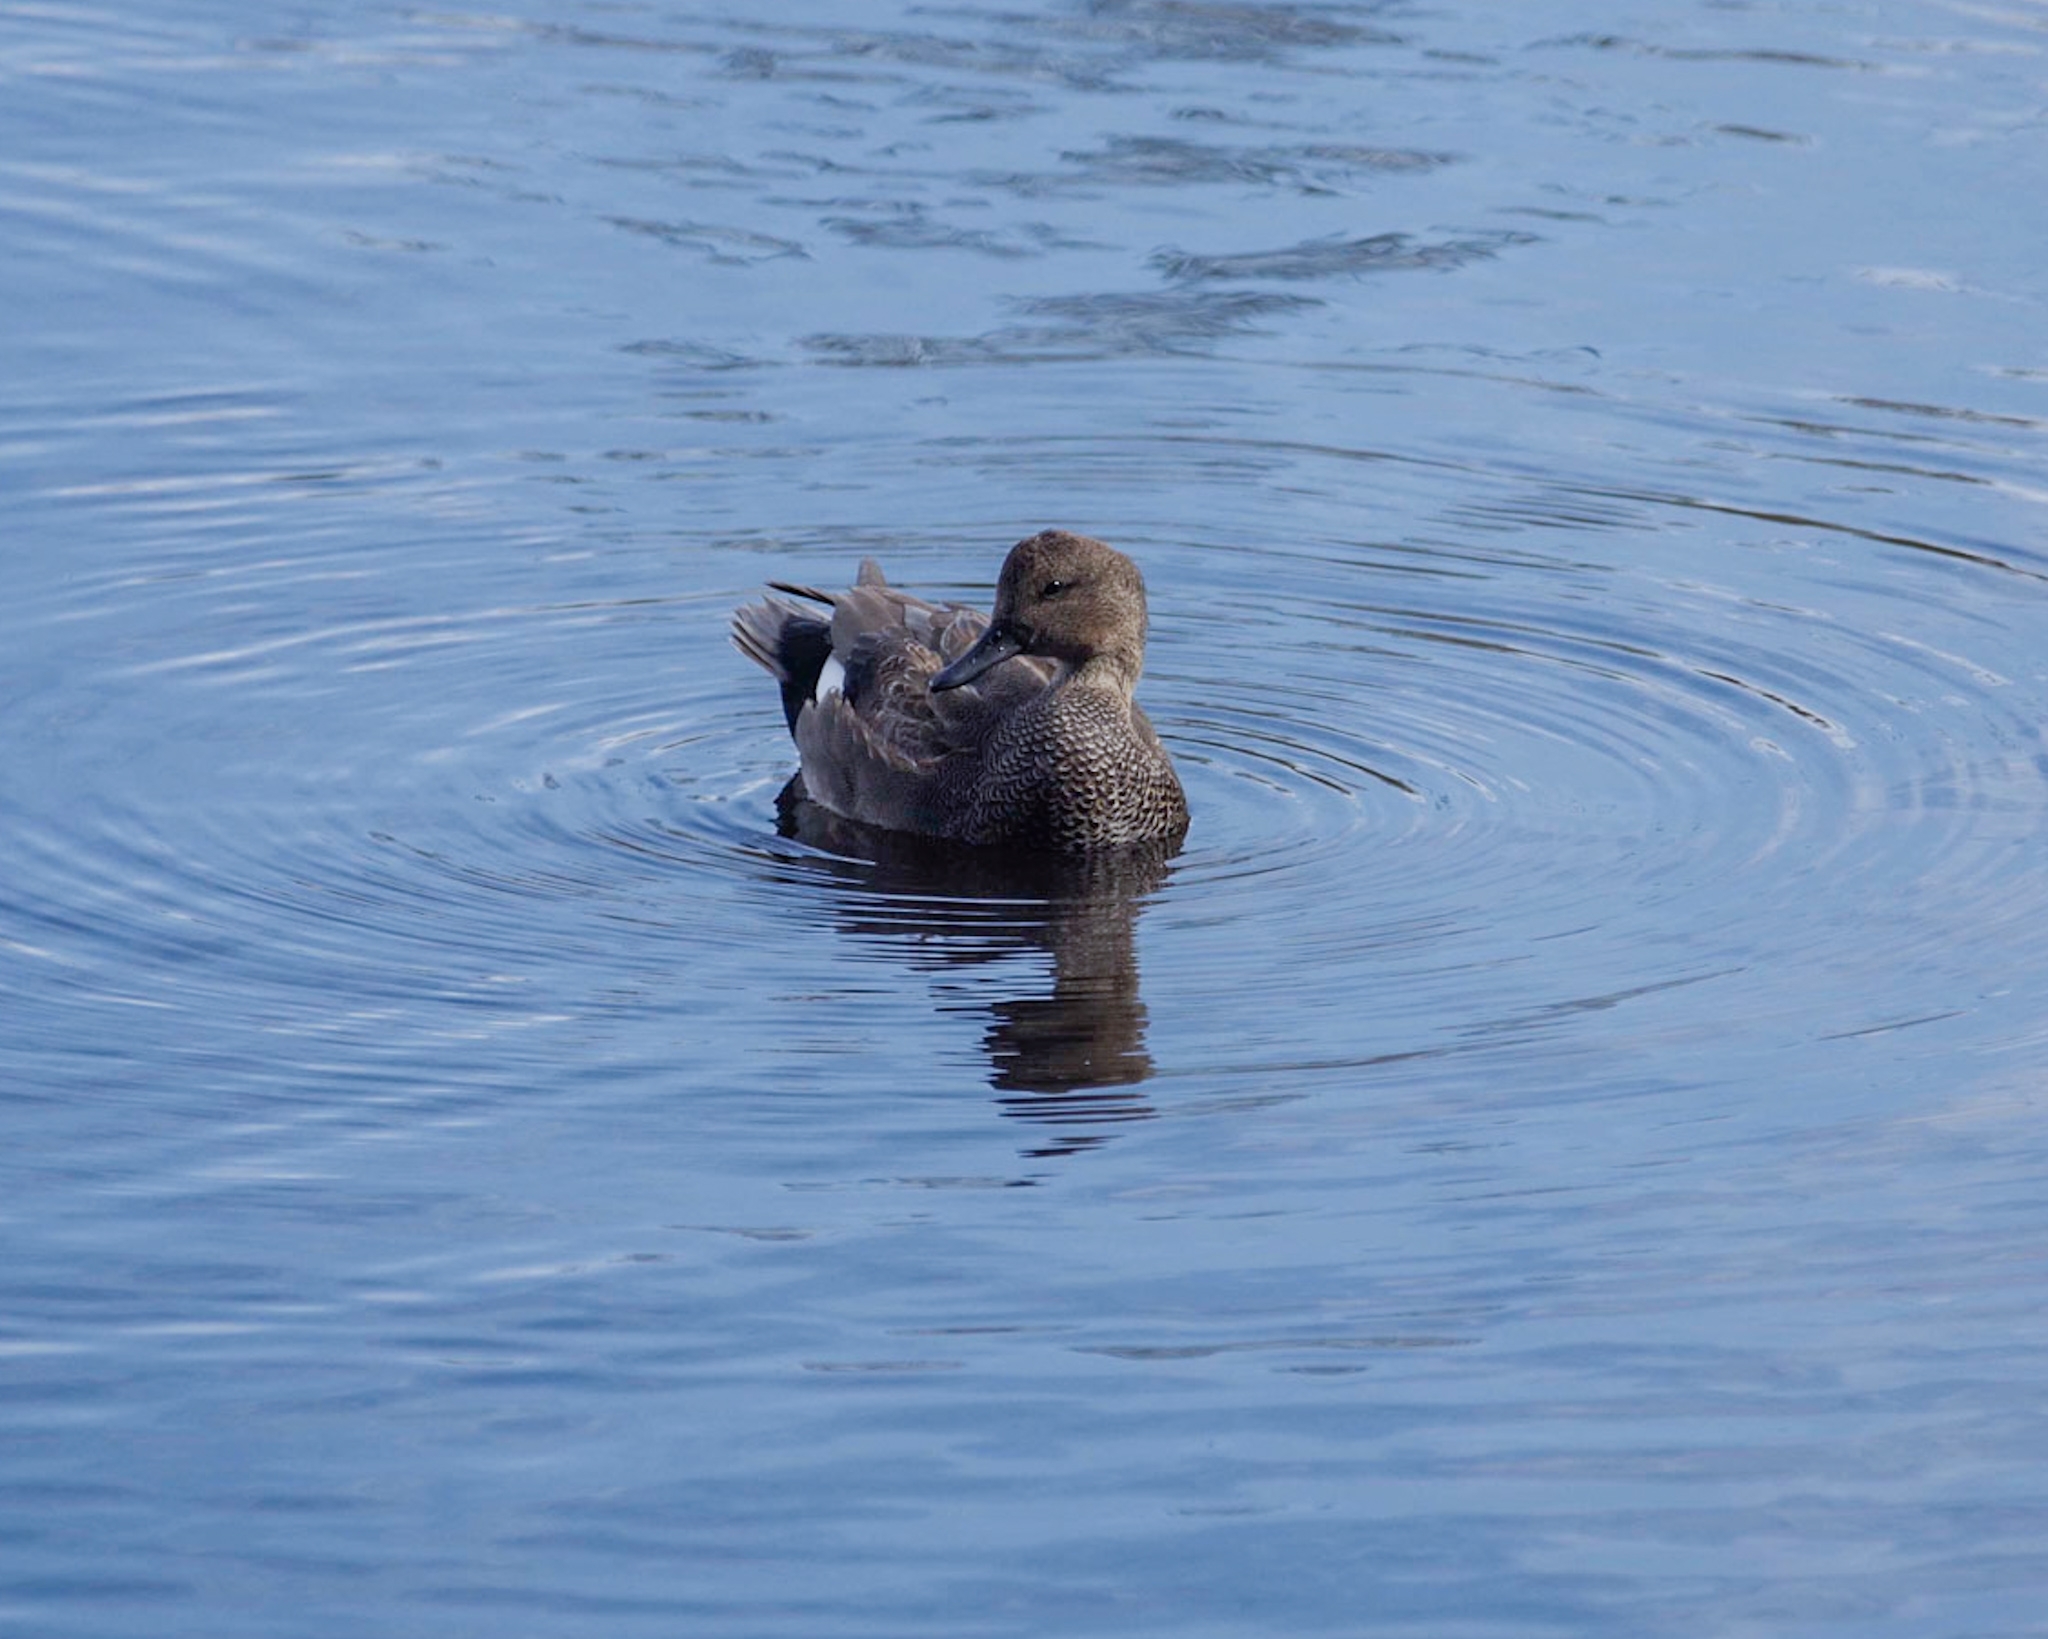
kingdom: Animalia
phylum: Chordata
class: Aves
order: Anseriformes
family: Anatidae
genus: Mareca
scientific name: Mareca strepera
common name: Gadwall
